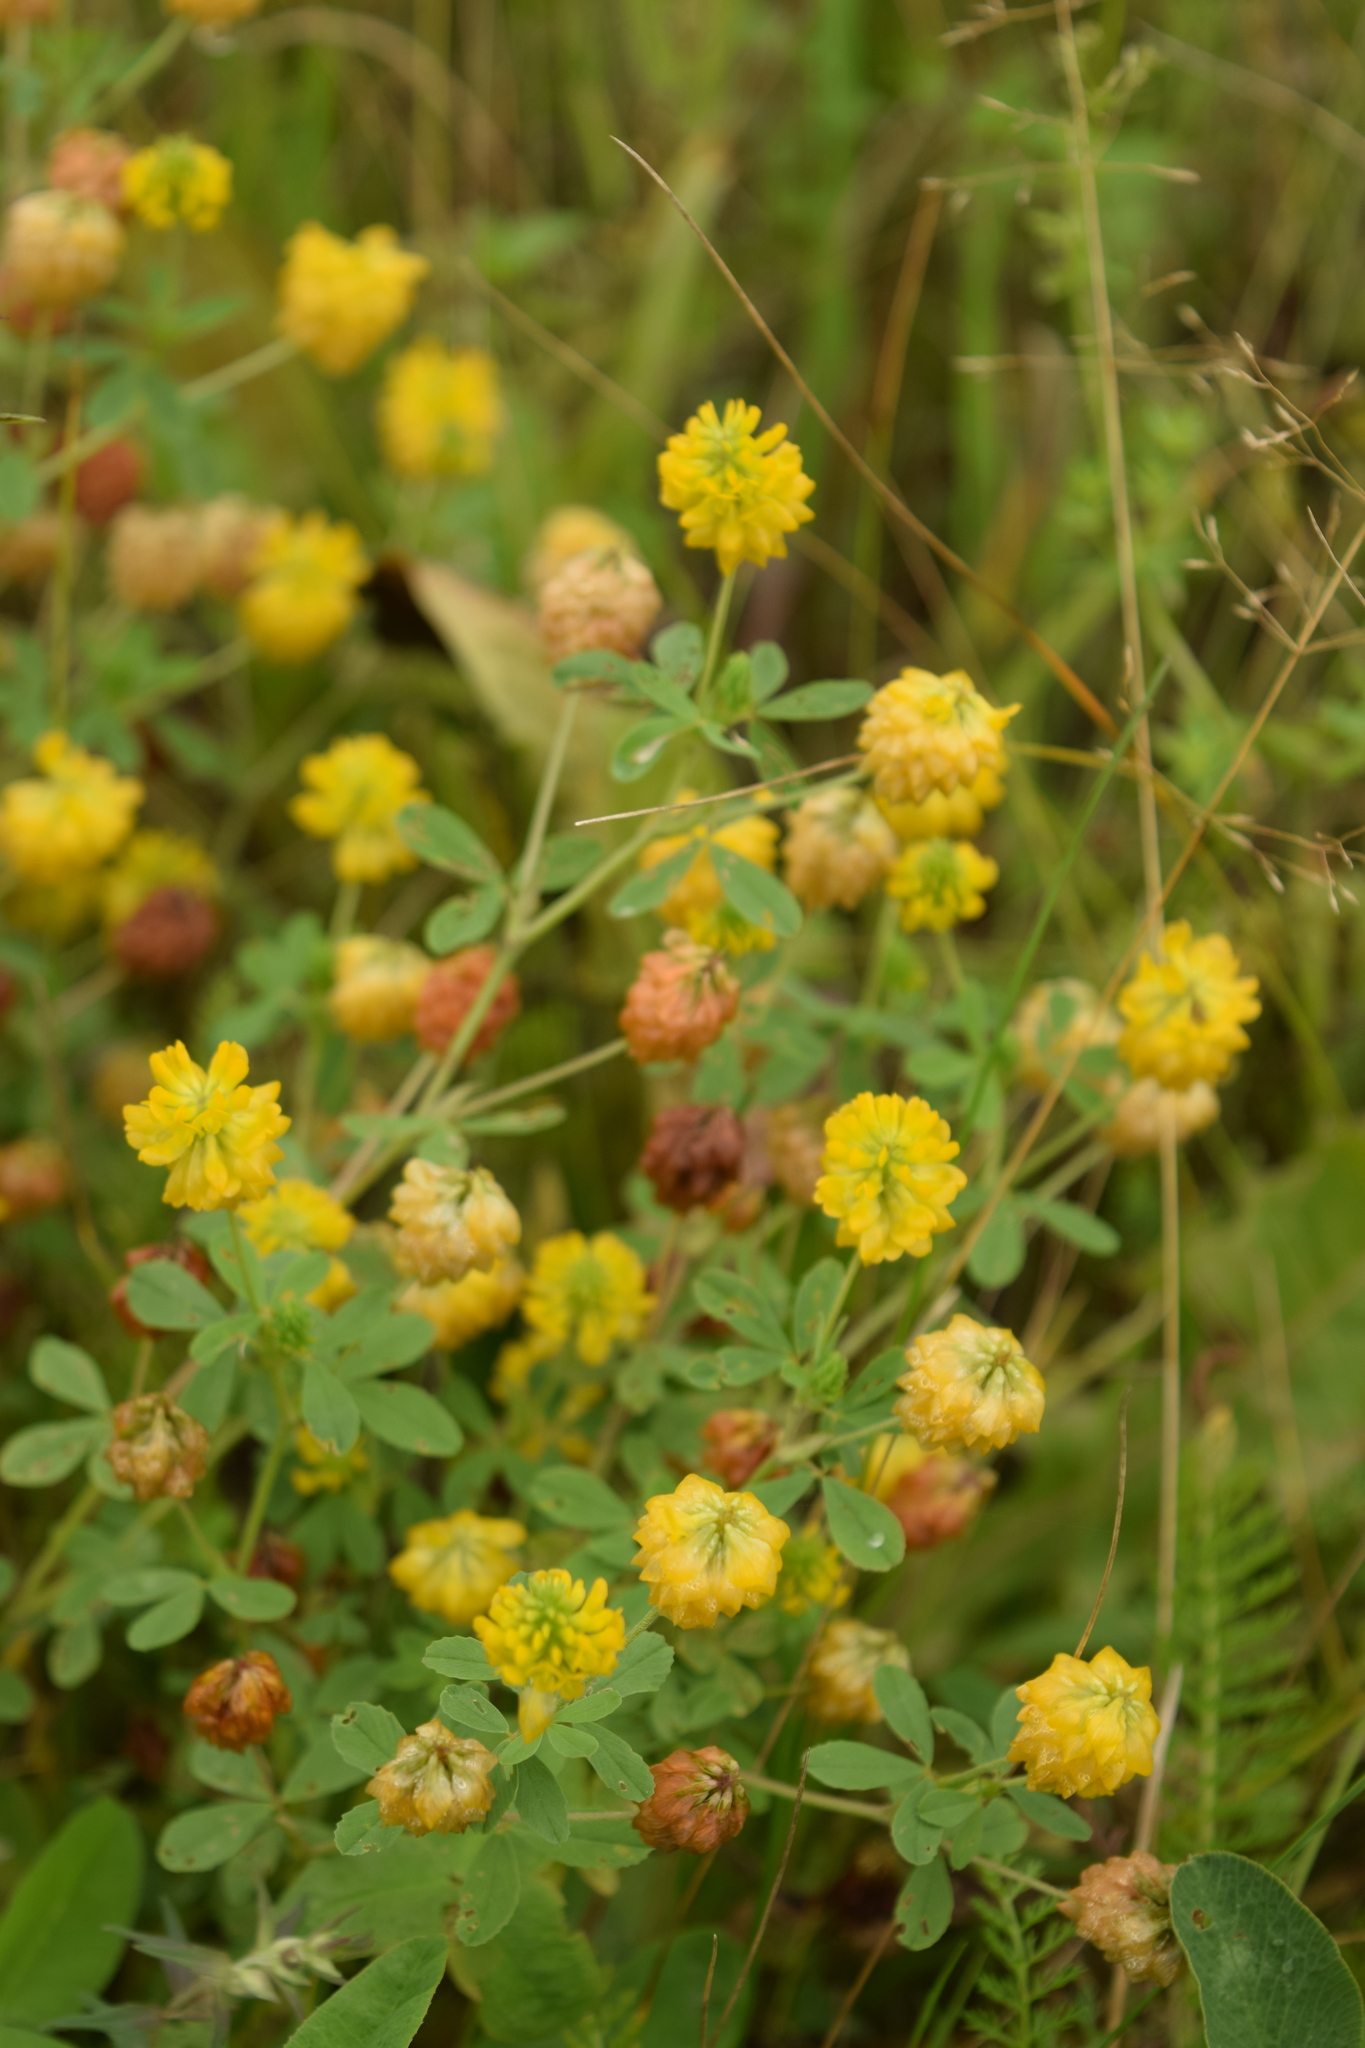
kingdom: Plantae
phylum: Tracheophyta
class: Magnoliopsida
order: Fabales
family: Fabaceae
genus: Trifolium
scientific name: Trifolium aureum
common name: Golden clover
